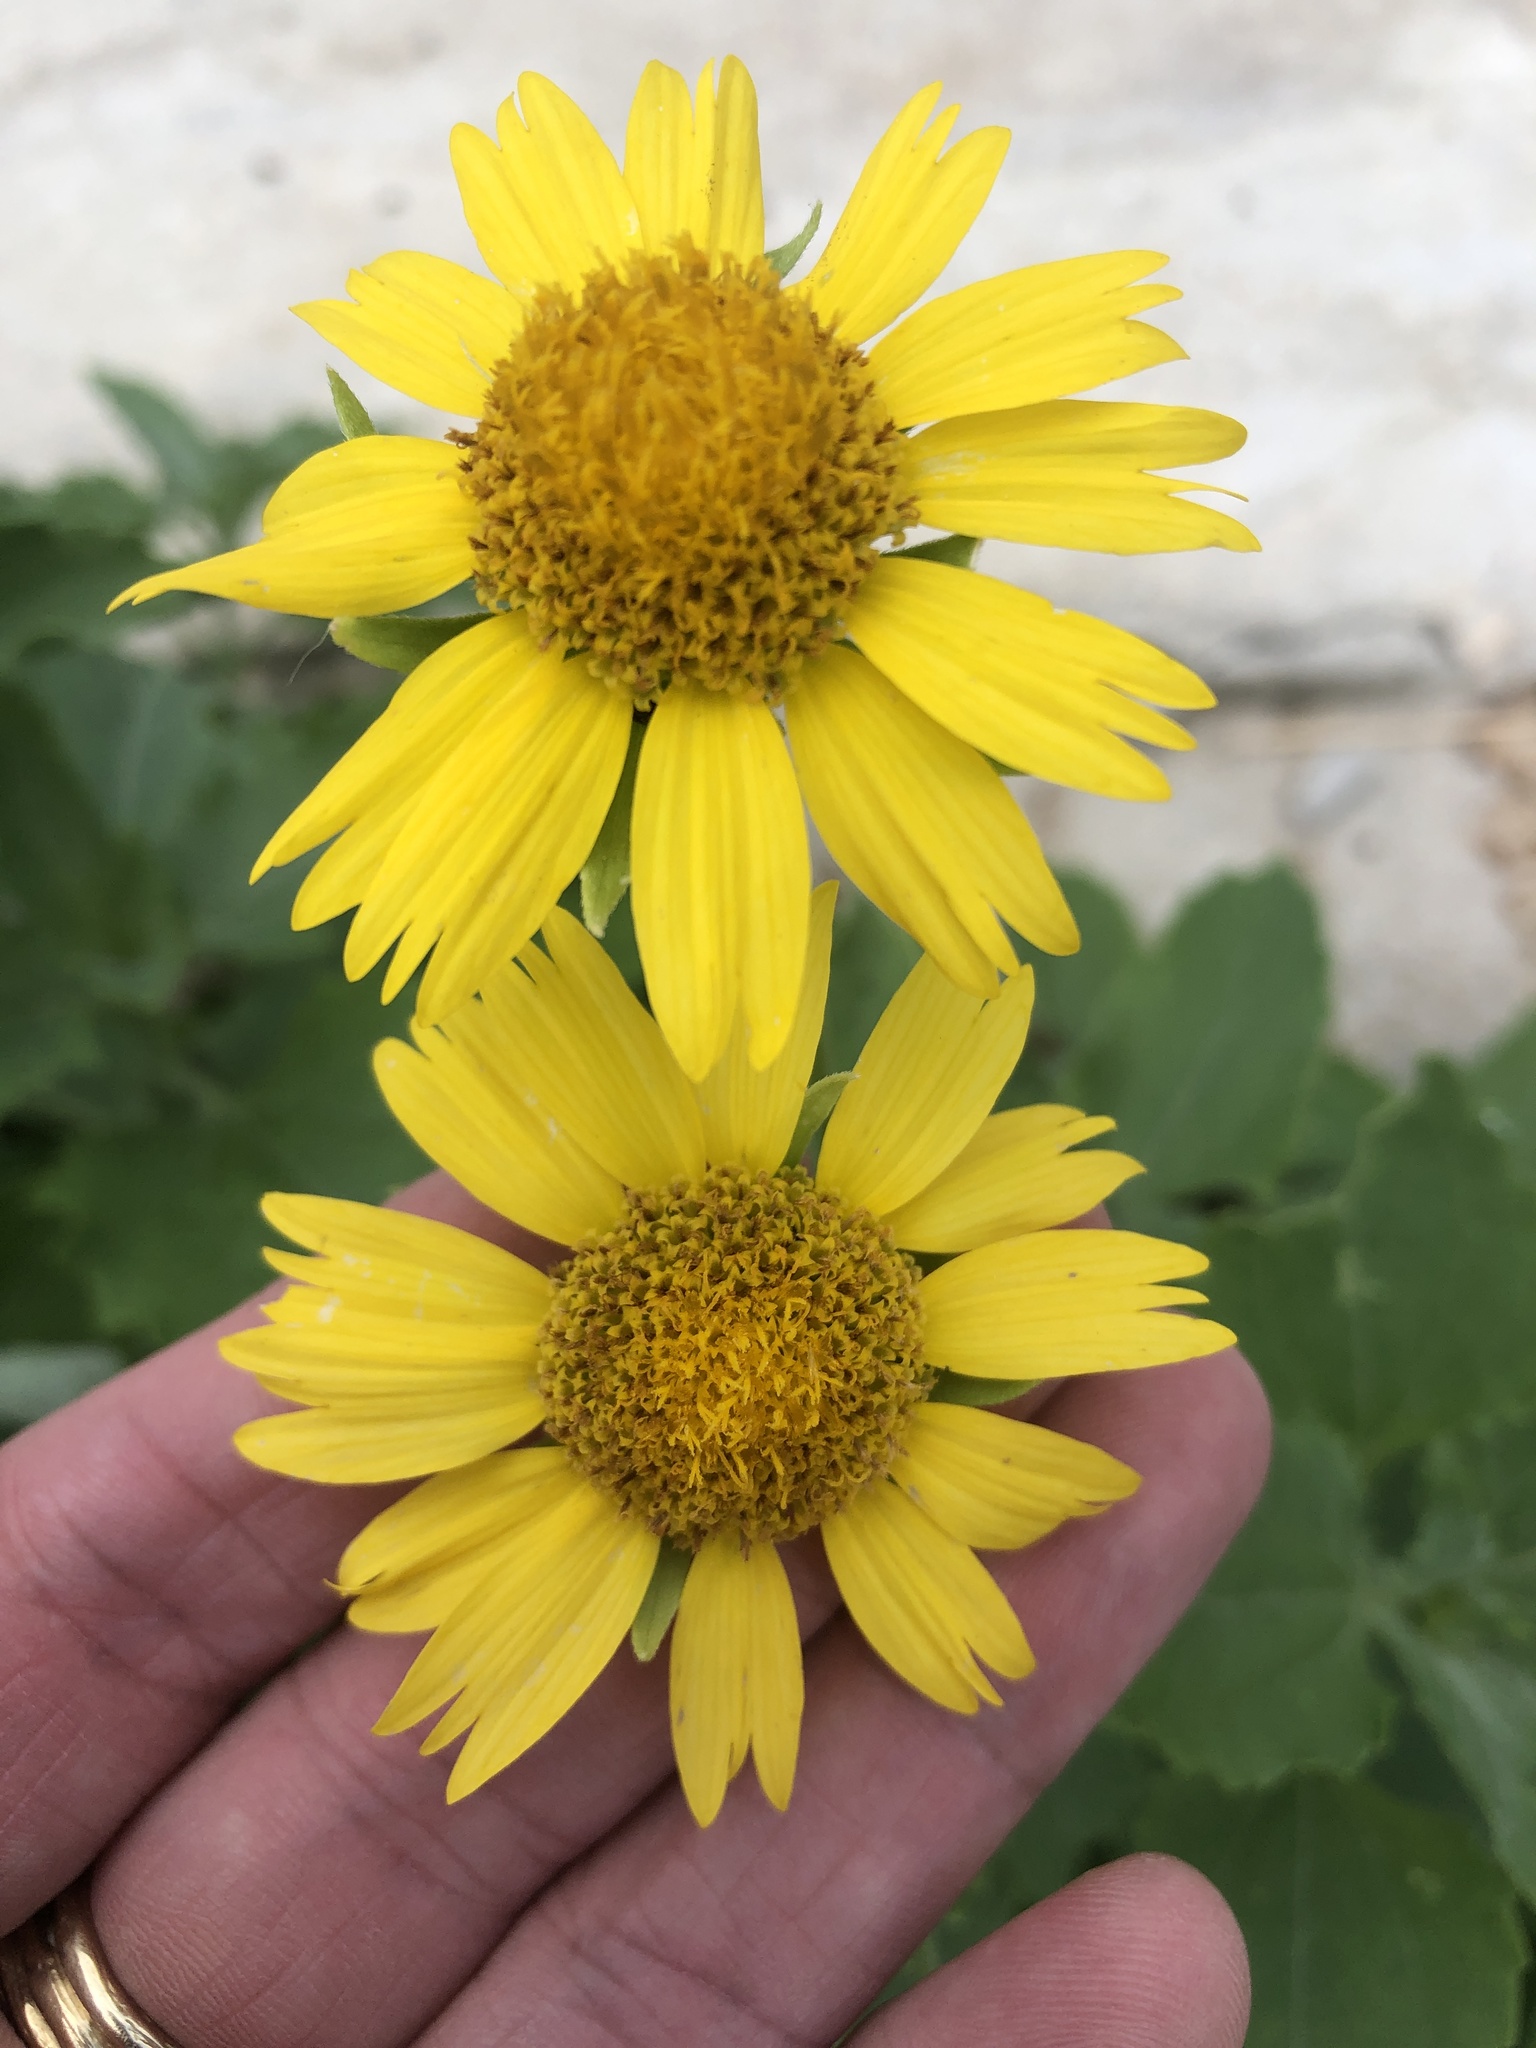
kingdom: Plantae
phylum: Tracheophyta
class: Magnoliopsida
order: Asterales
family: Asteraceae
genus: Verbesina
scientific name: Verbesina encelioides
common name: Golden crownbeard
